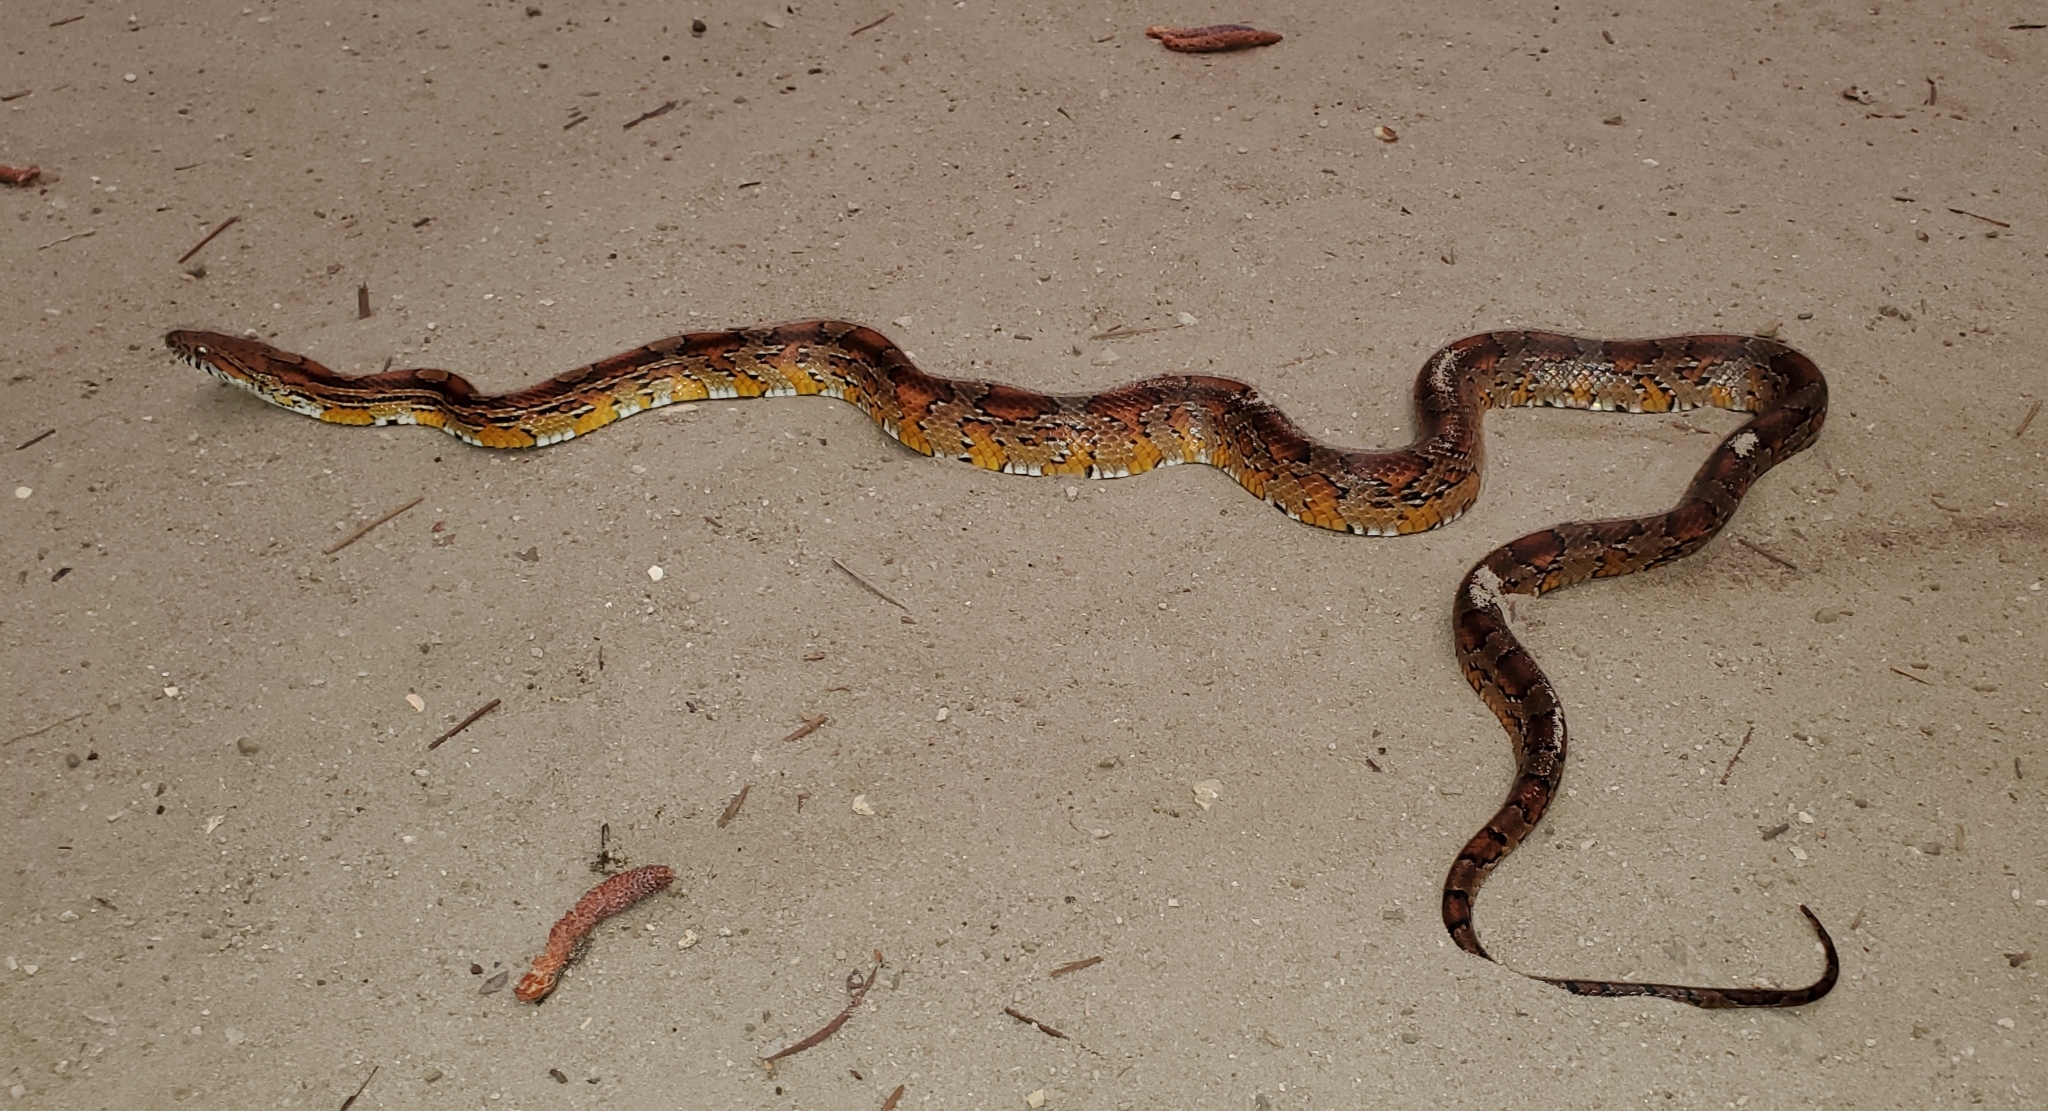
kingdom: Animalia
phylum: Chordata
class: Squamata
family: Colubridae
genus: Pantherophis
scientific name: Pantherophis guttatus
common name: Red cornsnake
